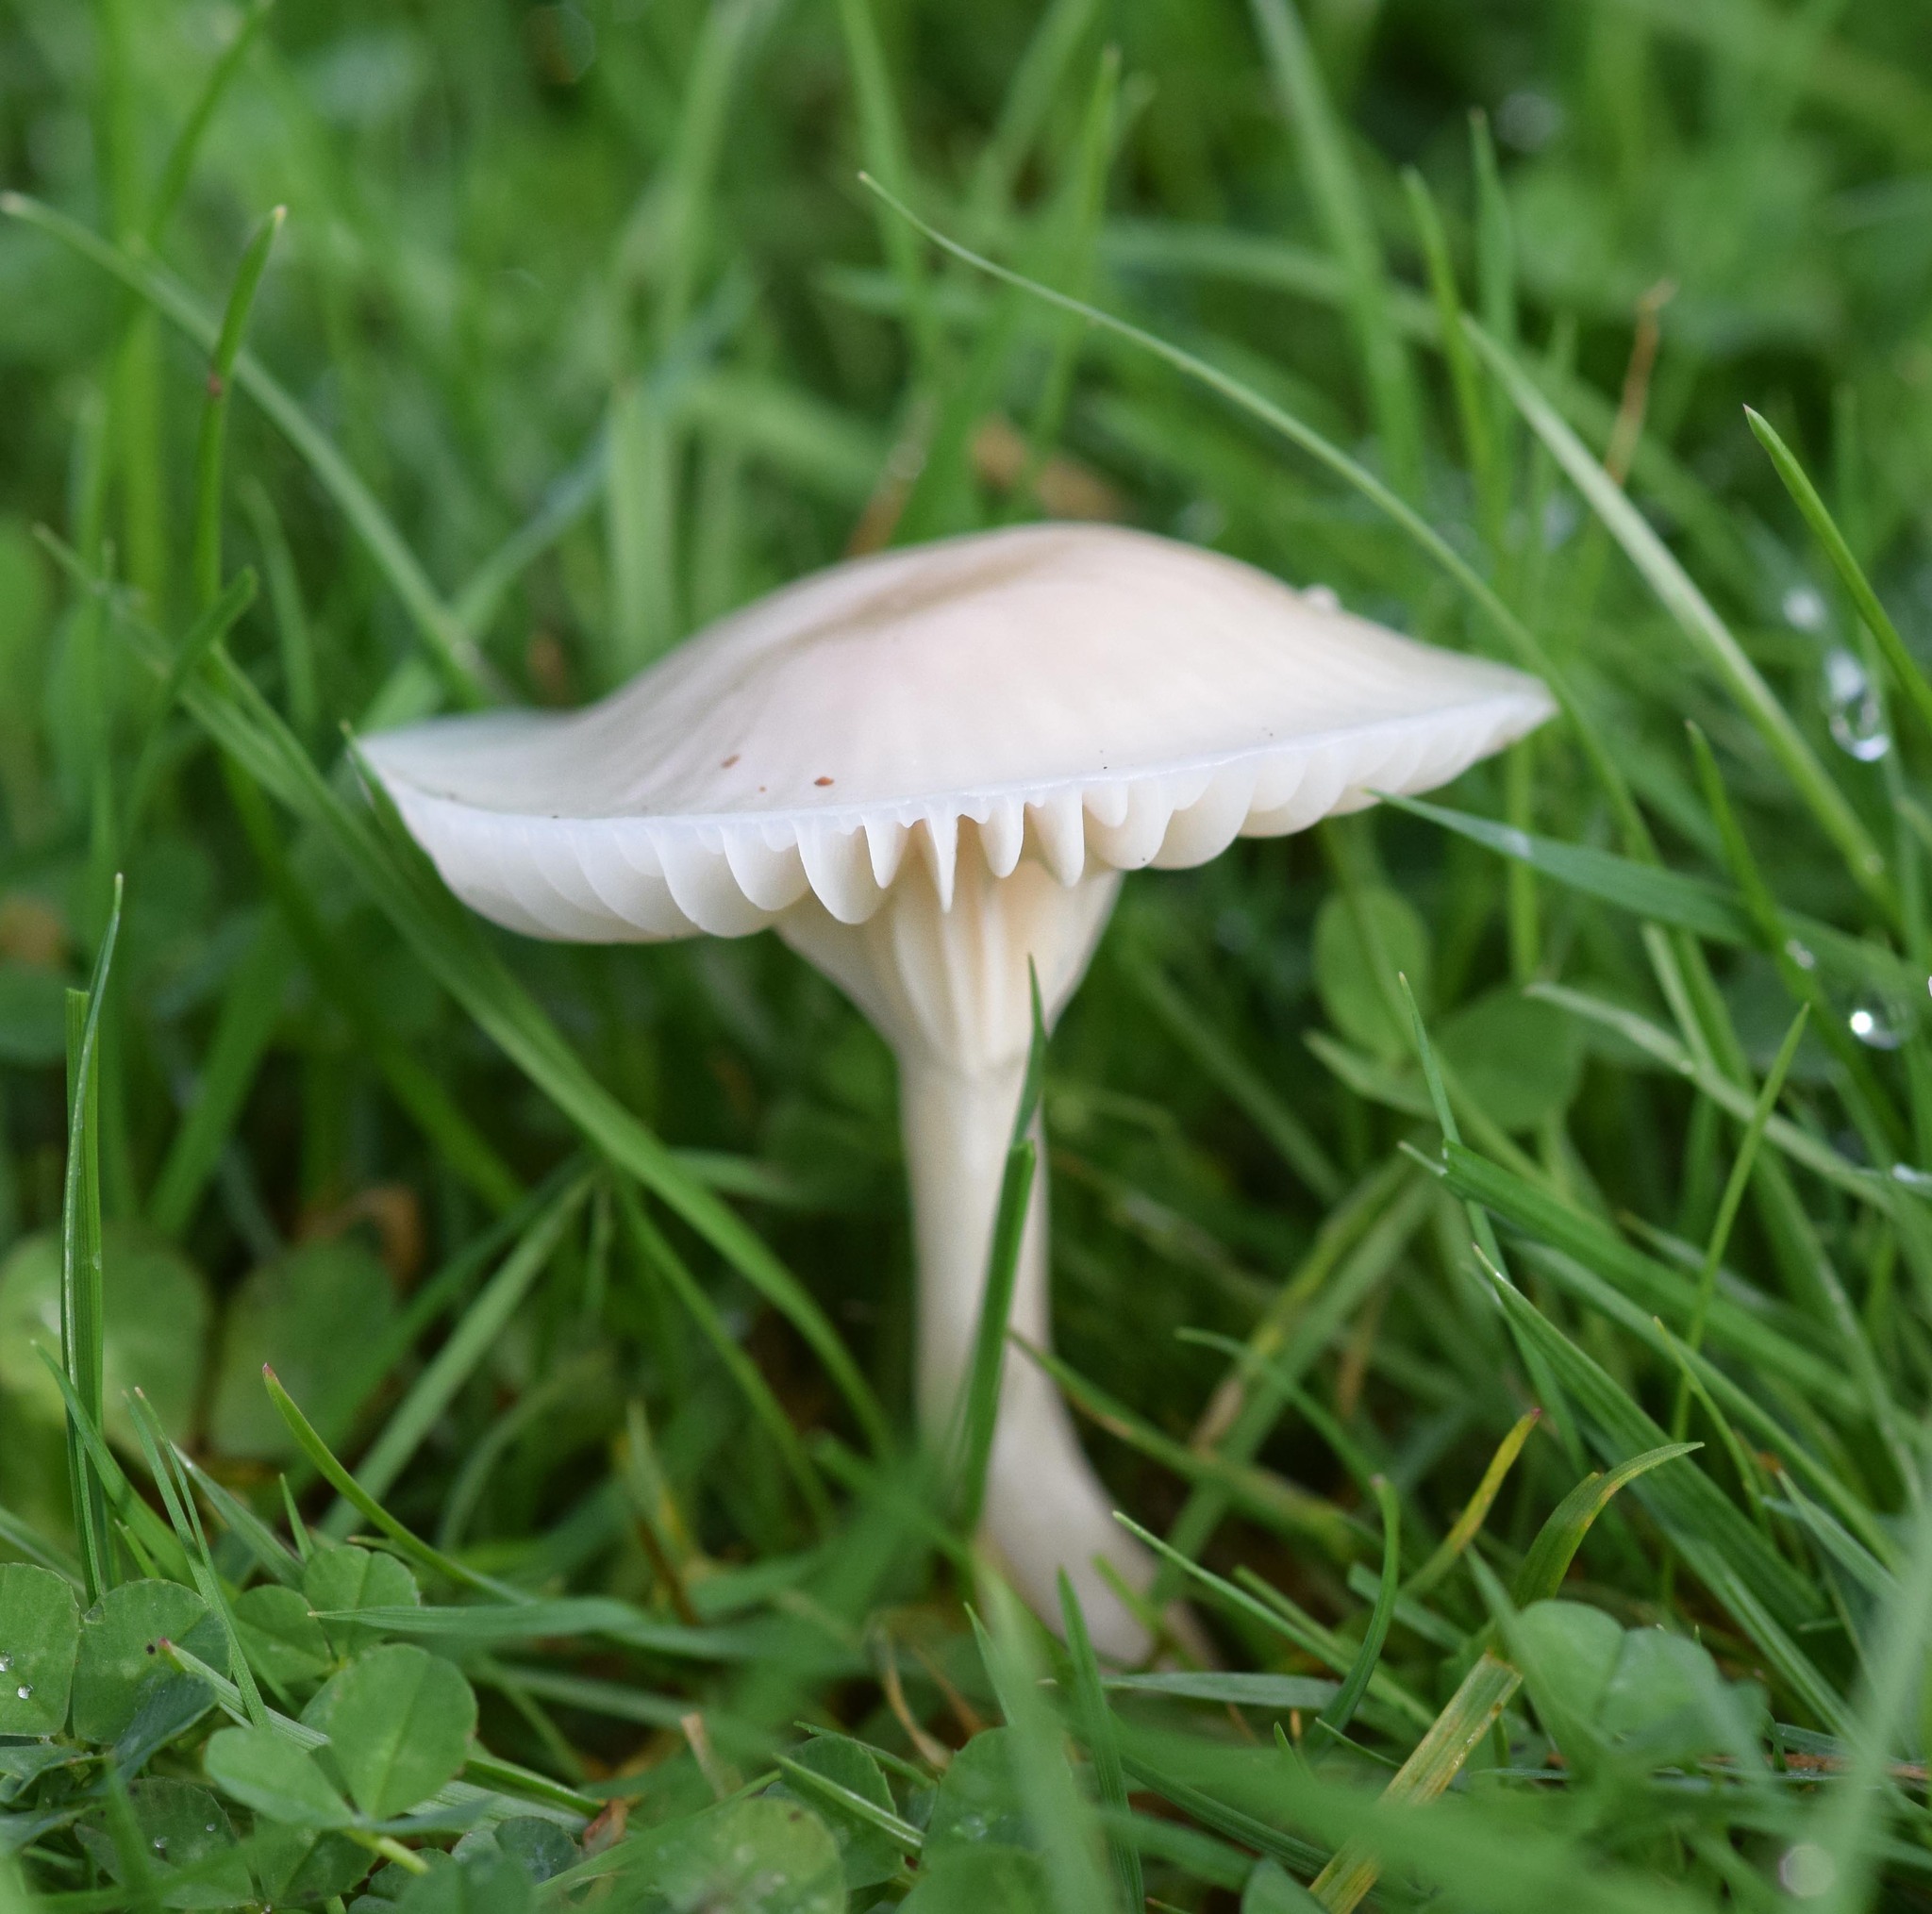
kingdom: Fungi
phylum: Basidiomycota
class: Agaricomycetes
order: Agaricales
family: Hygrophoraceae
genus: Cuphophyllus
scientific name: Cuphophyllus virgineus
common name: Snowy waxcap
